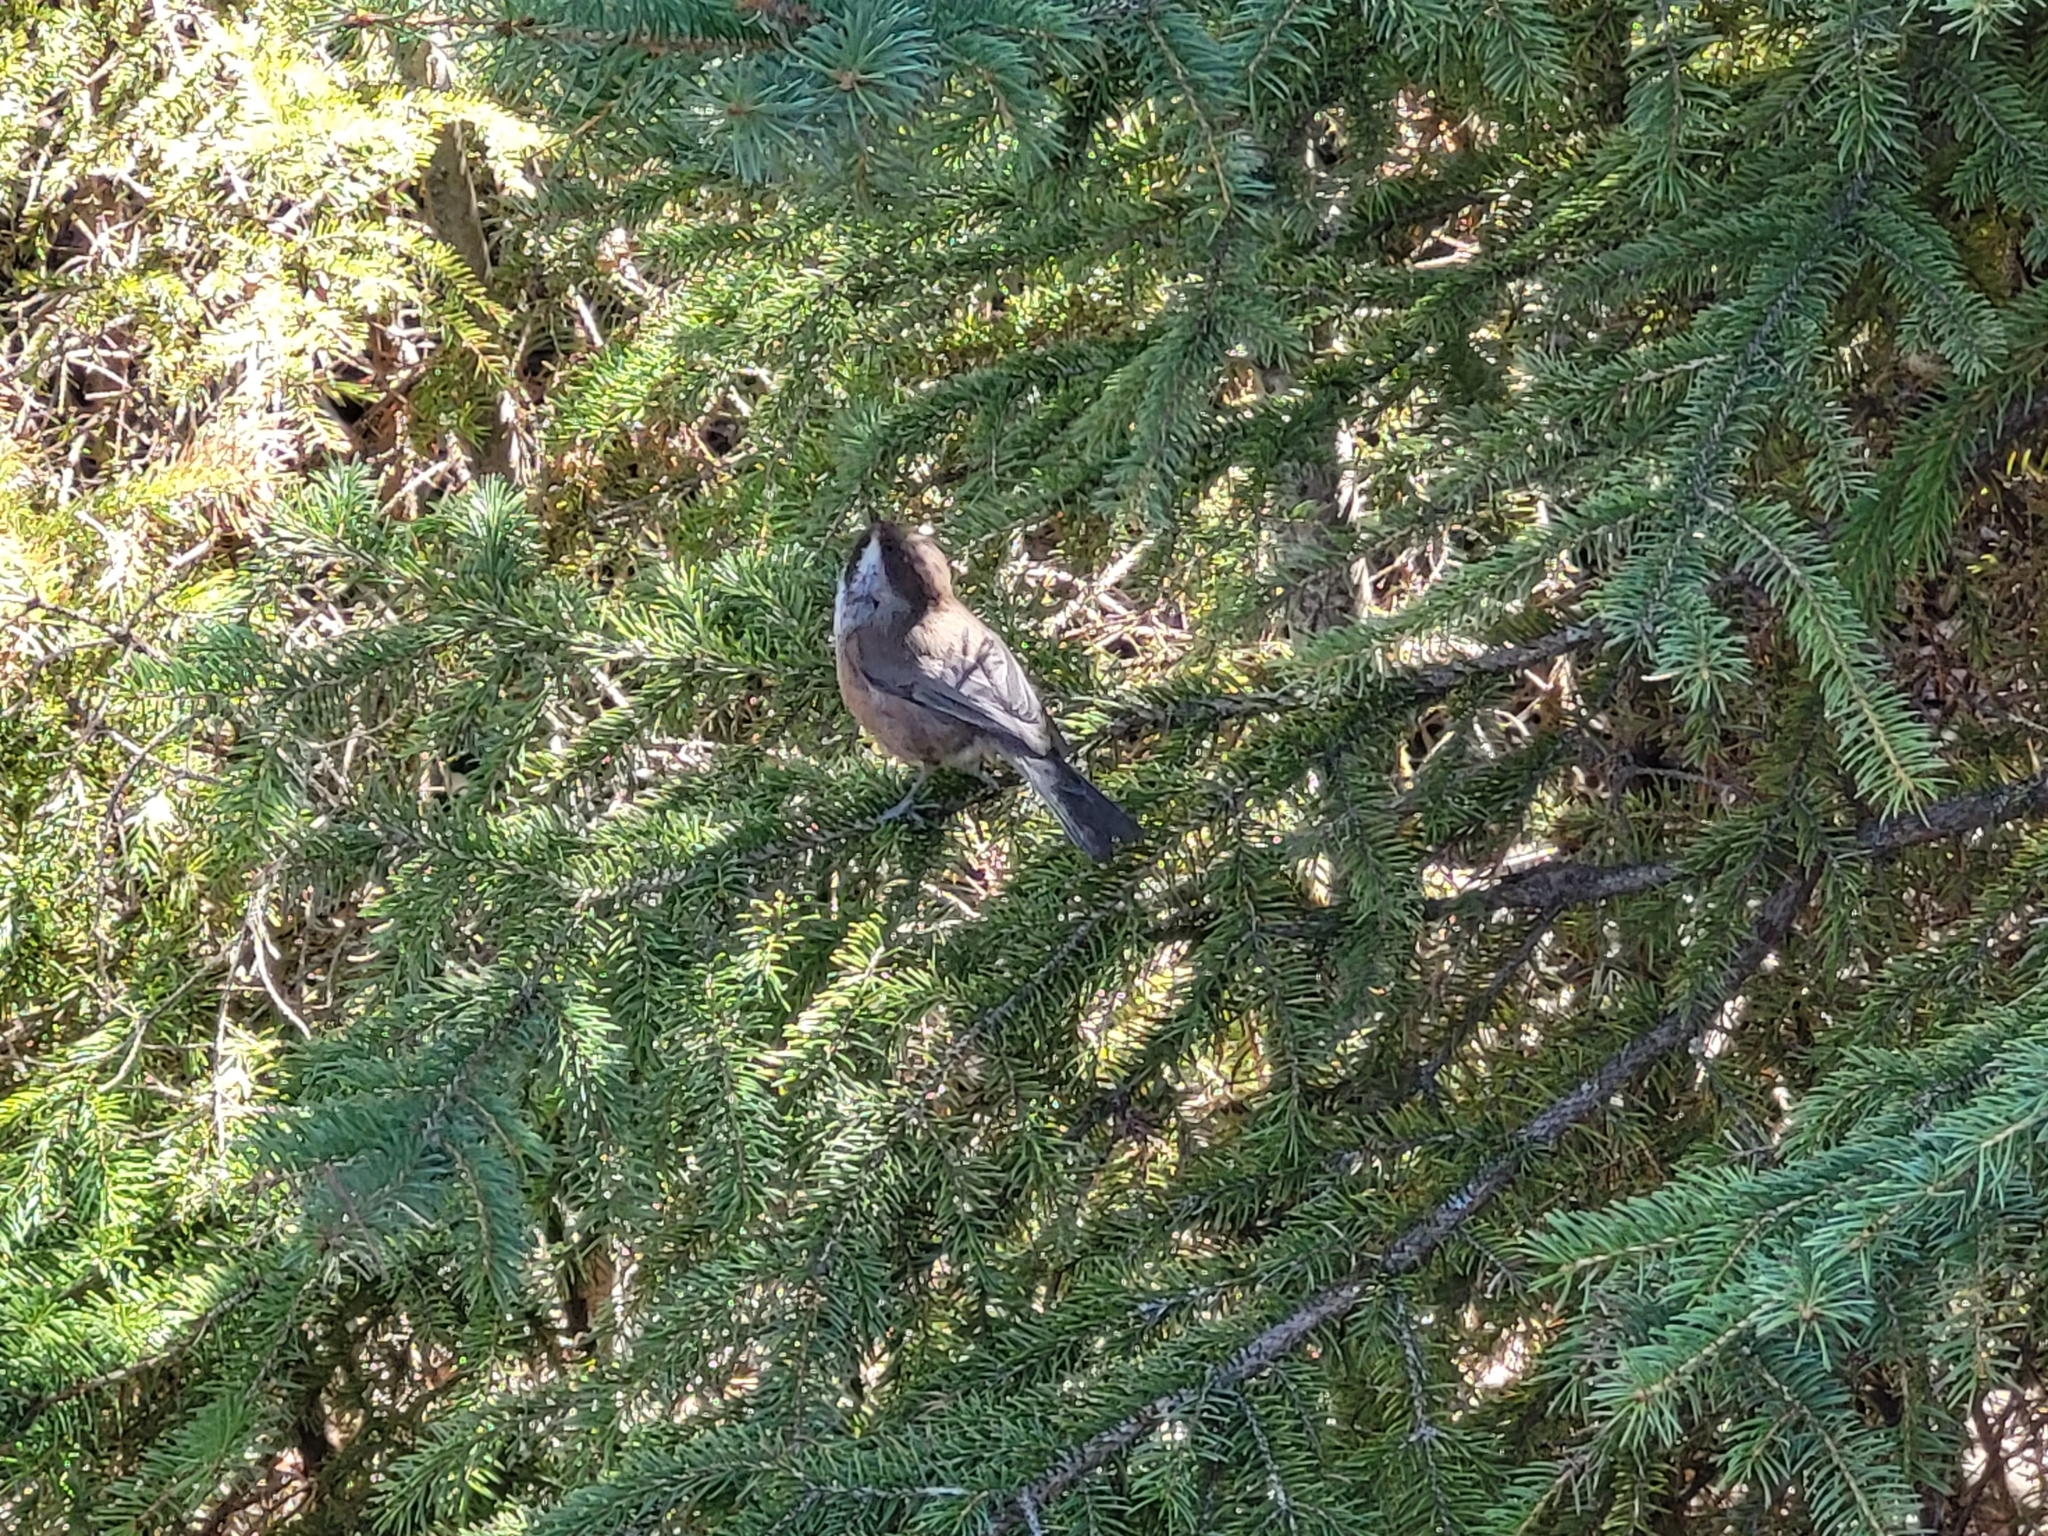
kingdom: Animalia
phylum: Chordata
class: Aves
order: Passeriformes
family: Paridae
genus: Poecile
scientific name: Poecile hudsonicus
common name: Boreal chickadee
